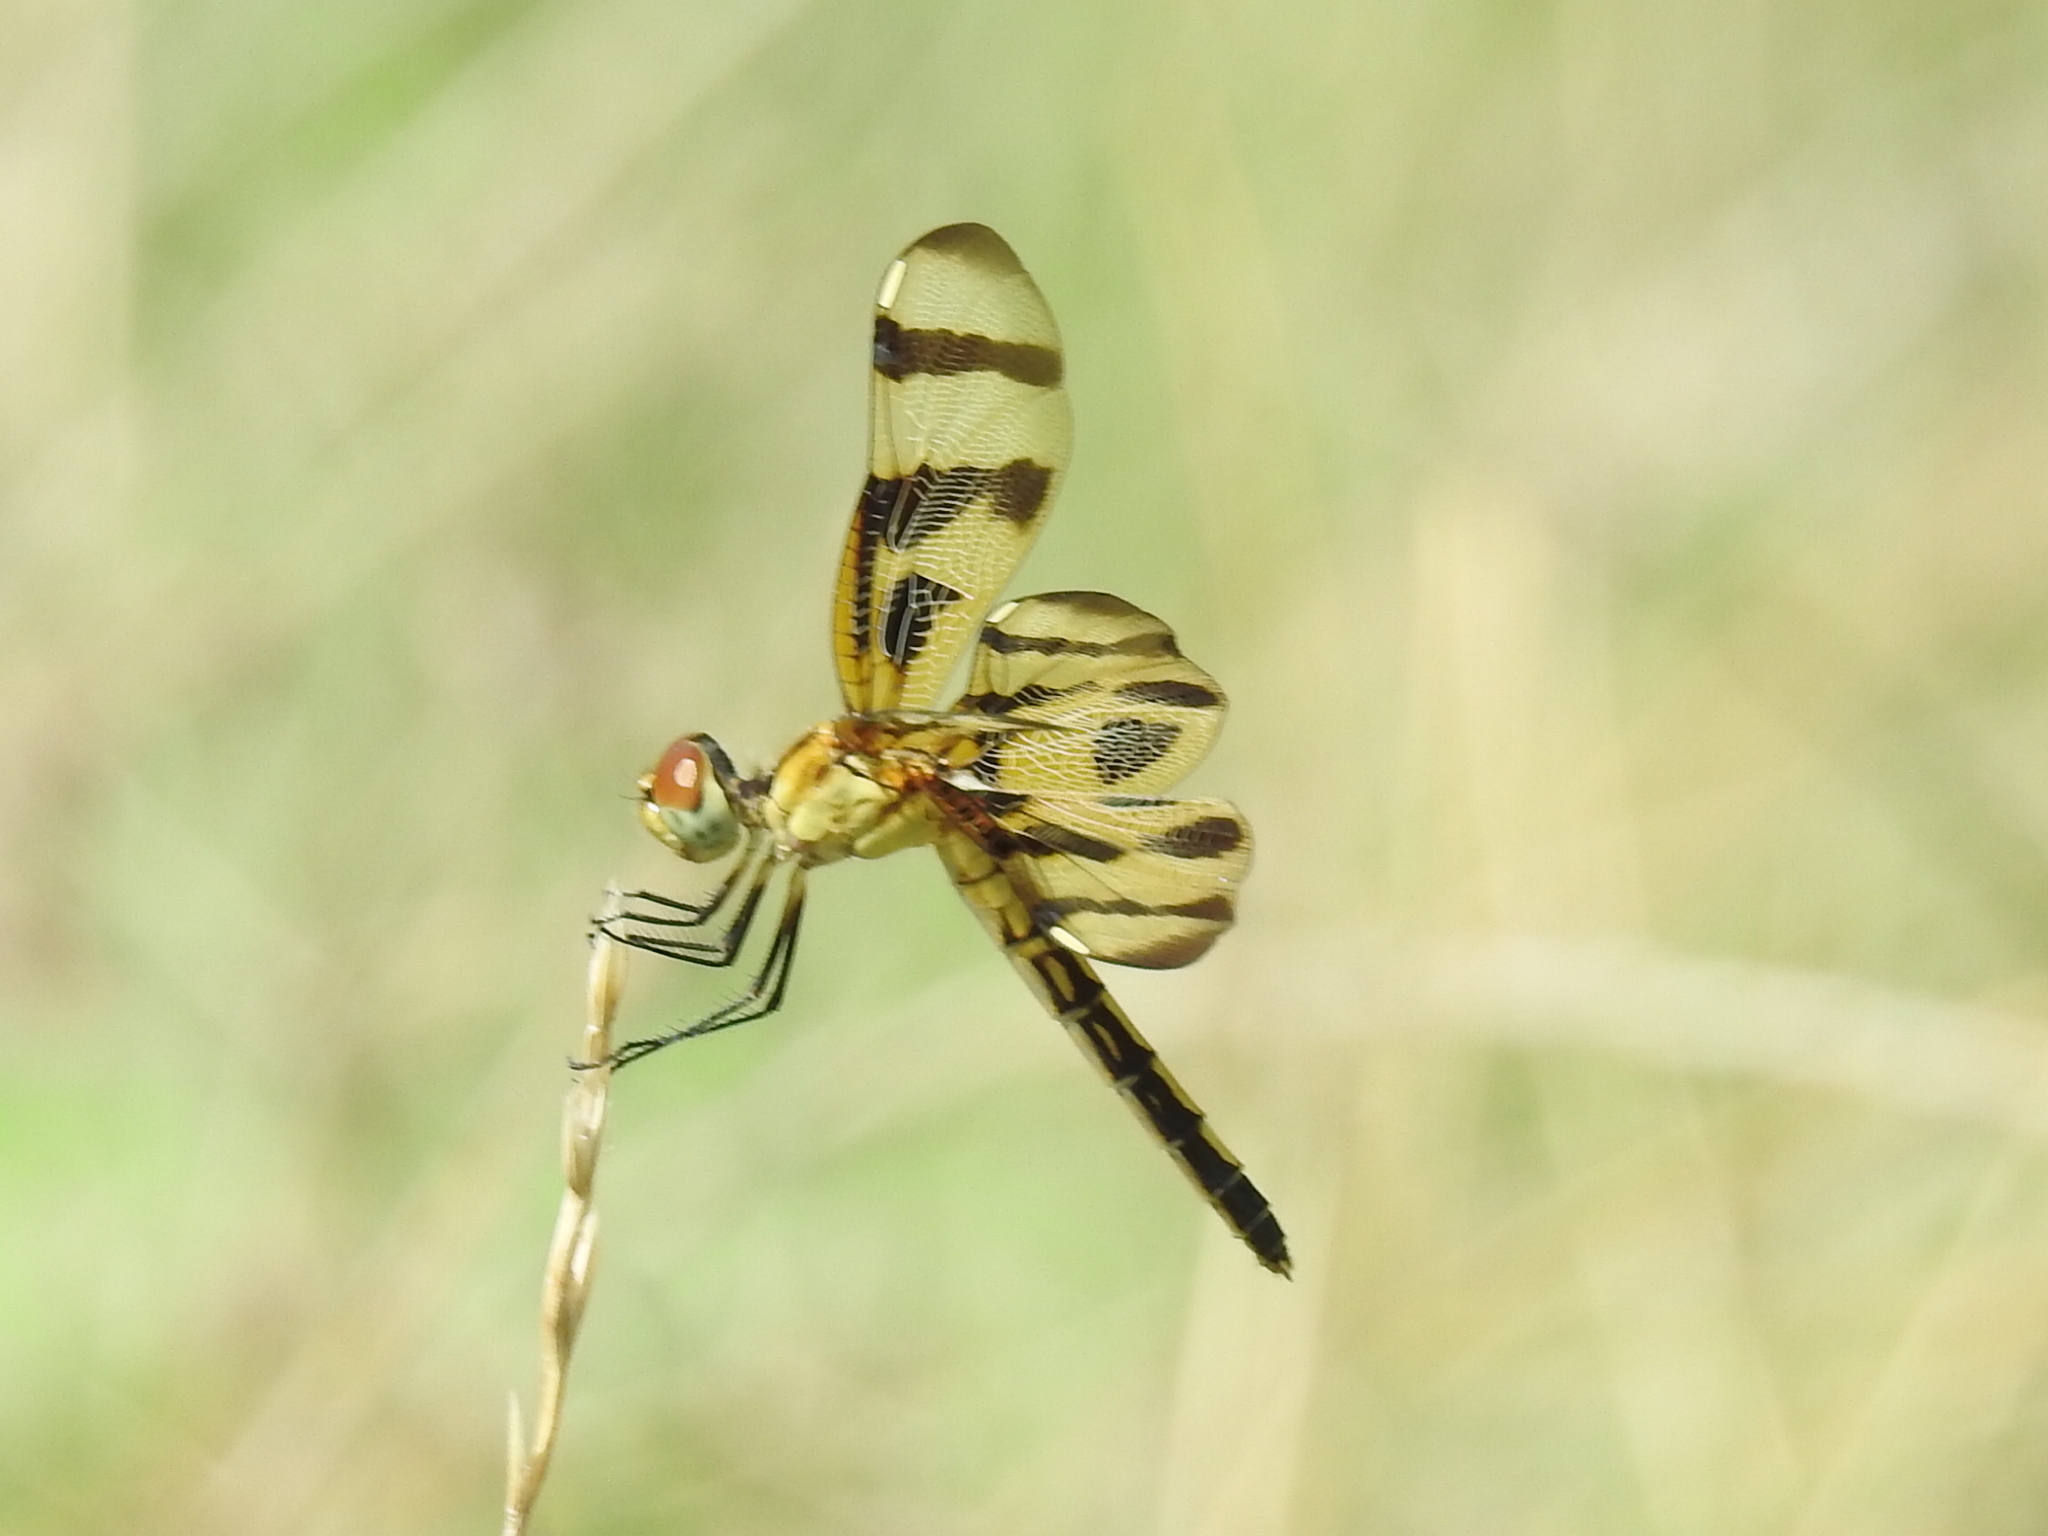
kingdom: Animalia
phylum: Arthropoda
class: Insecta
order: Odonata
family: Libellulidae
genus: Celithemis
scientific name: Celithemis eponina
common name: Halloween pennant
